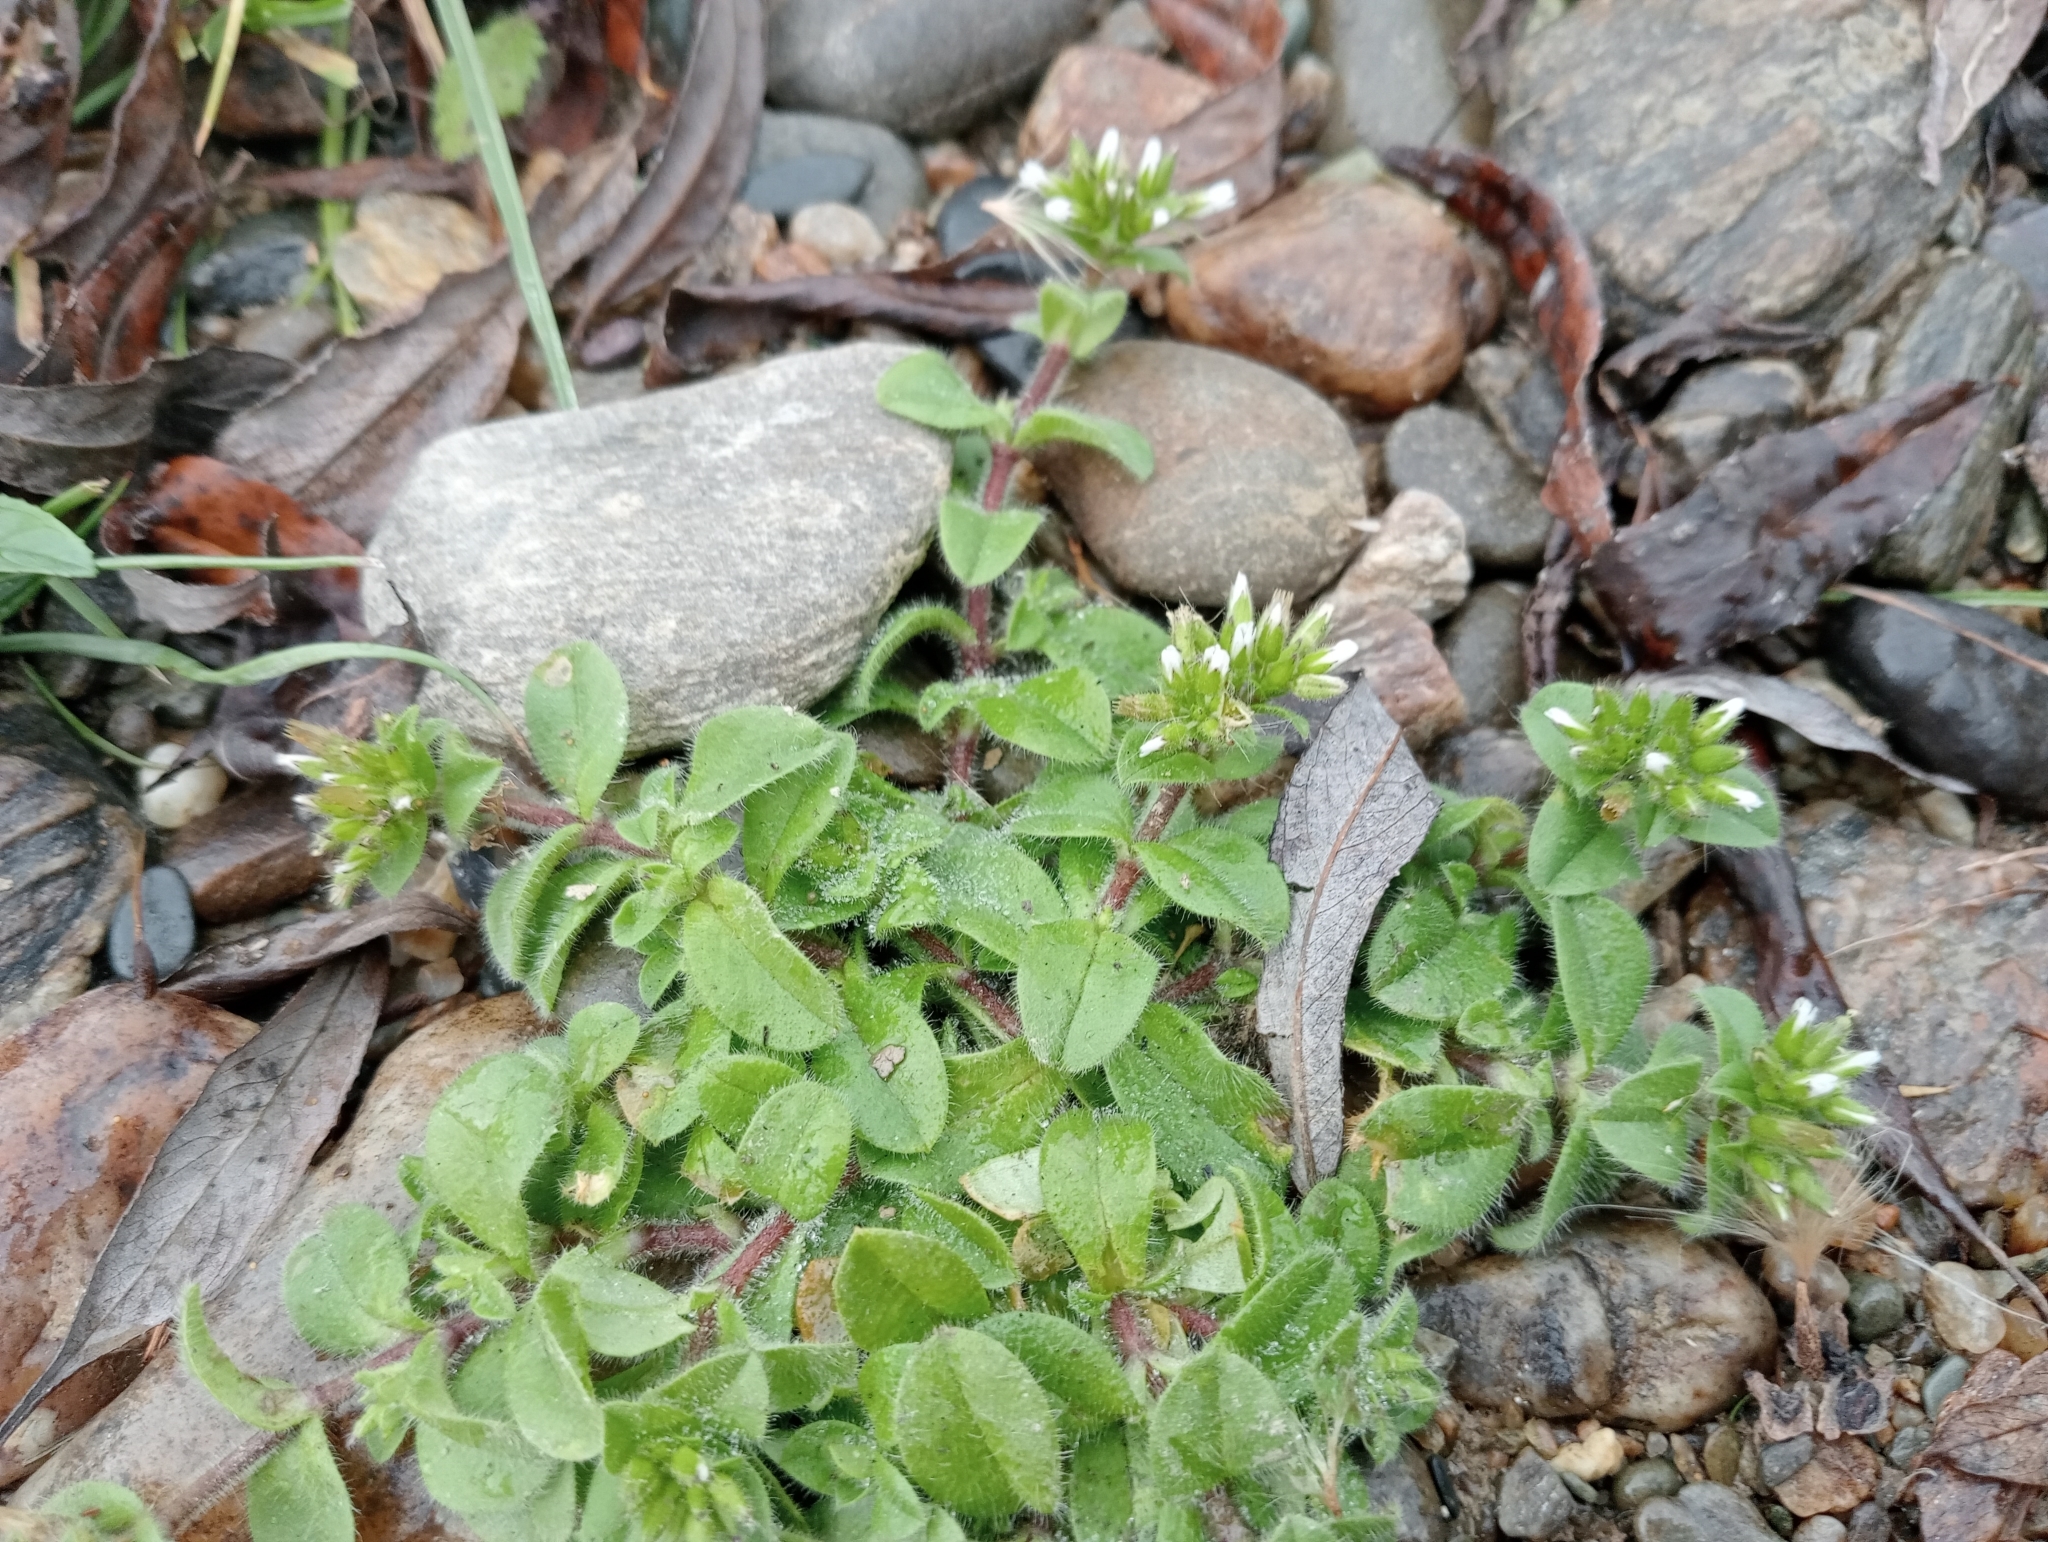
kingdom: Plantae
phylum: Tracheophyta
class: Magnoliopsida
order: Caryophyllales
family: Caryophyllaceae
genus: Cerastium
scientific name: Cerastium glomeratum
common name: Sticky chickweed
